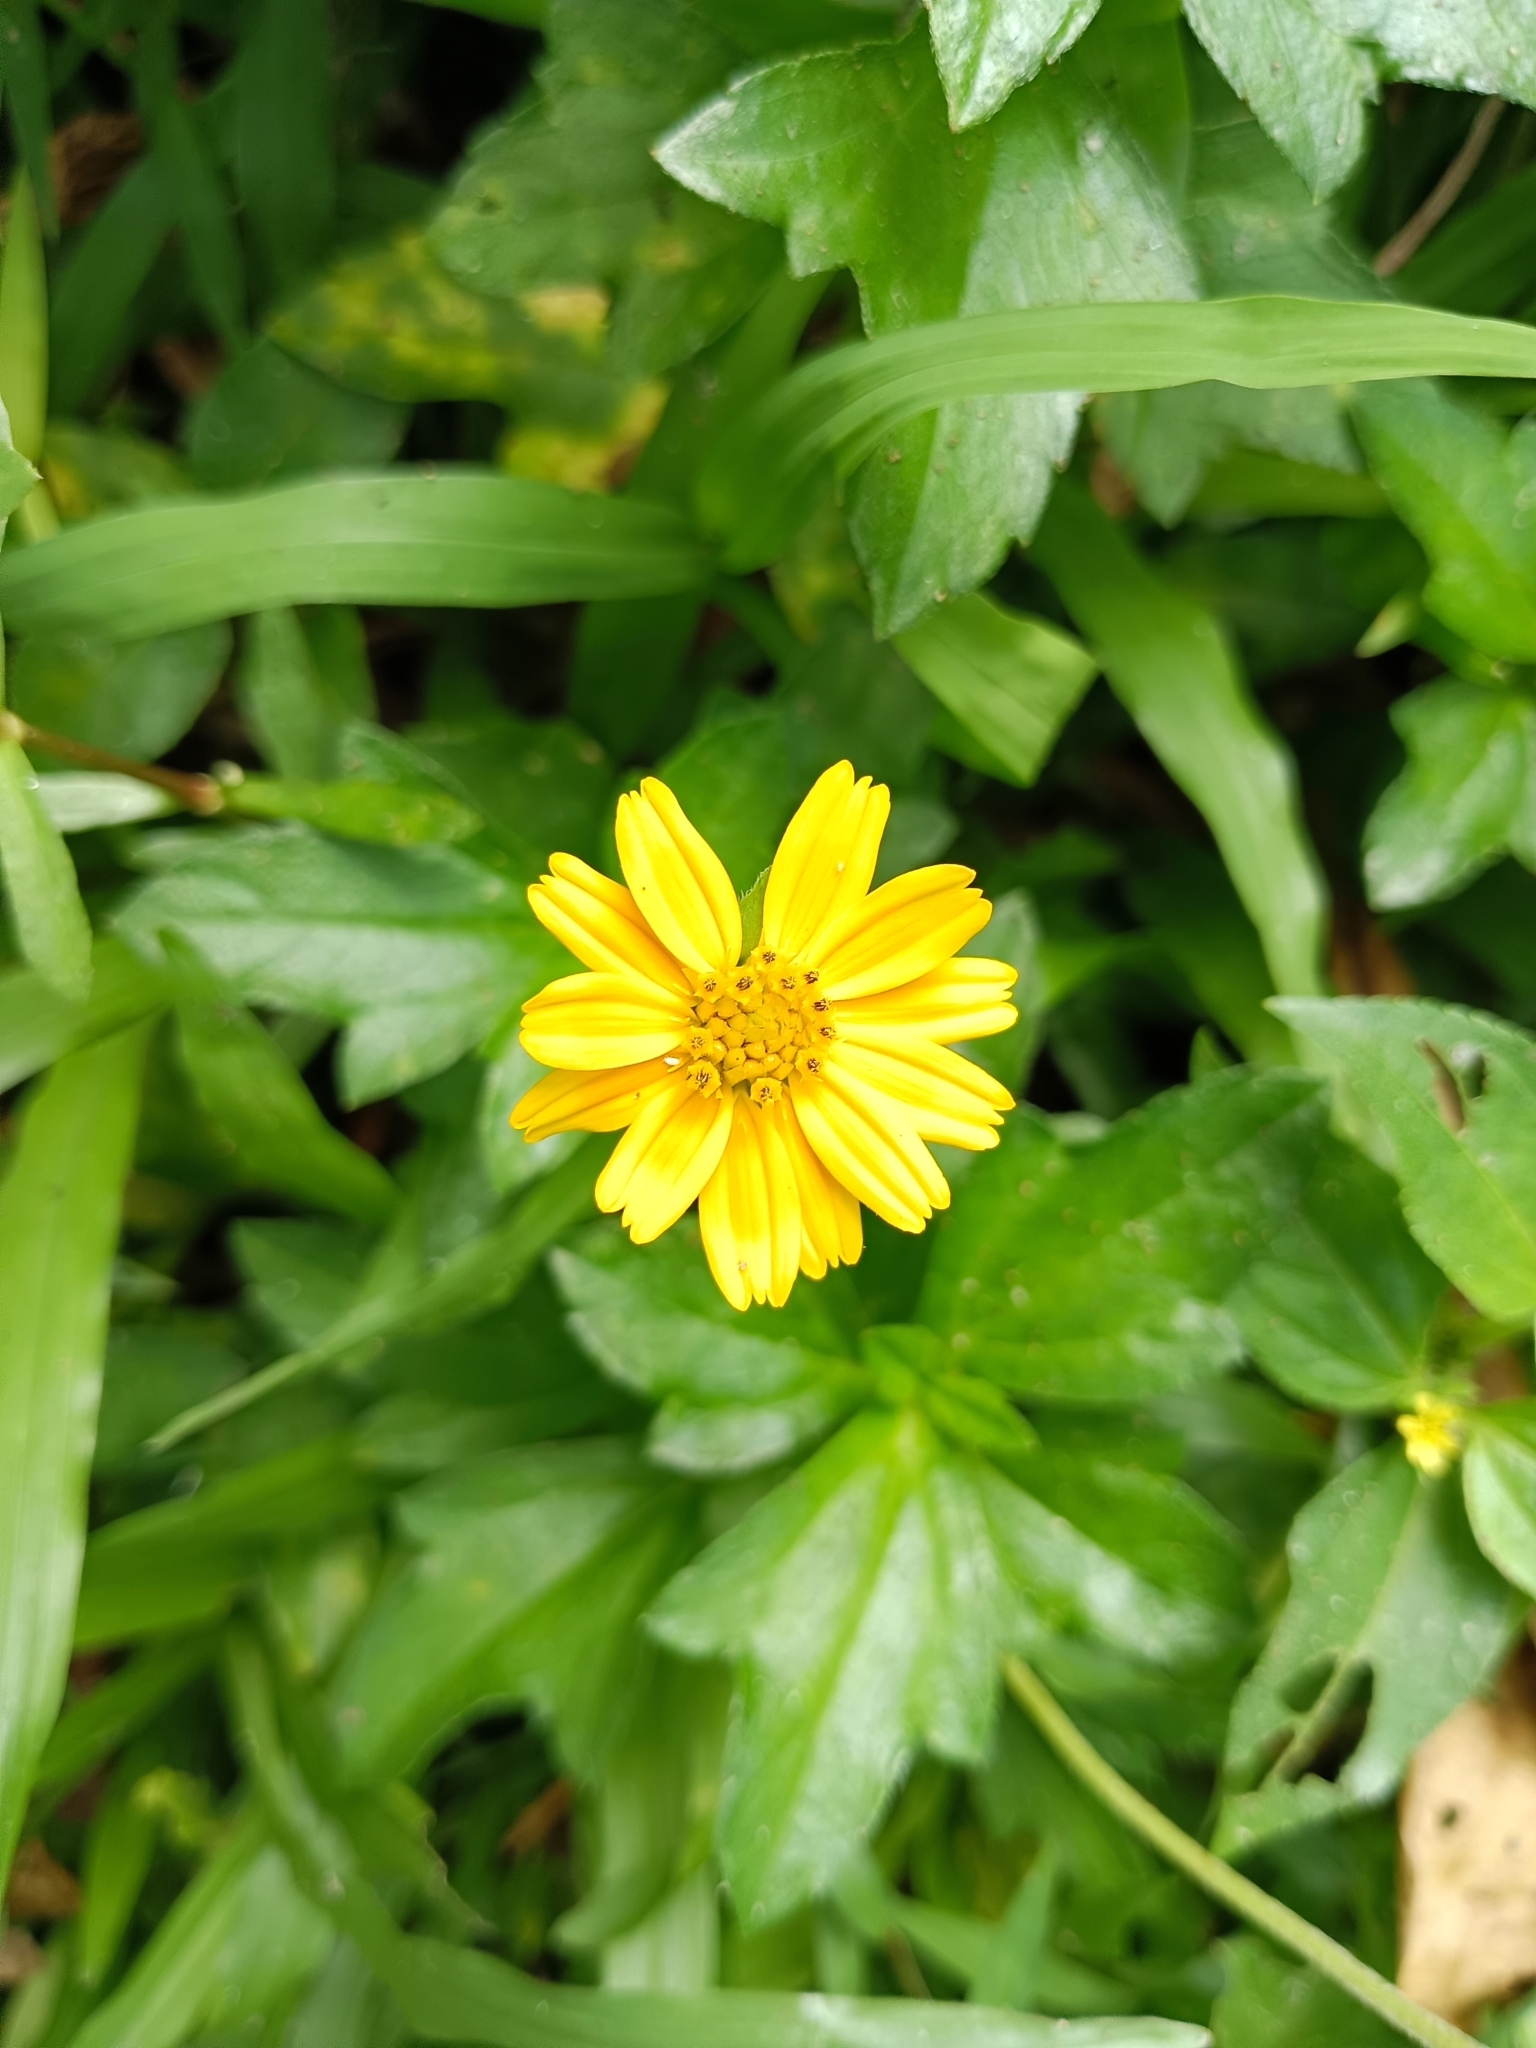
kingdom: Plantae
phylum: Tracheophyta
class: Magnoliopsida
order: Asterales
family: Asteraceae
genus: Sphagneticola
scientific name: Sphagneticola trilobata
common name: Bay biscayne creeping-oxeye
